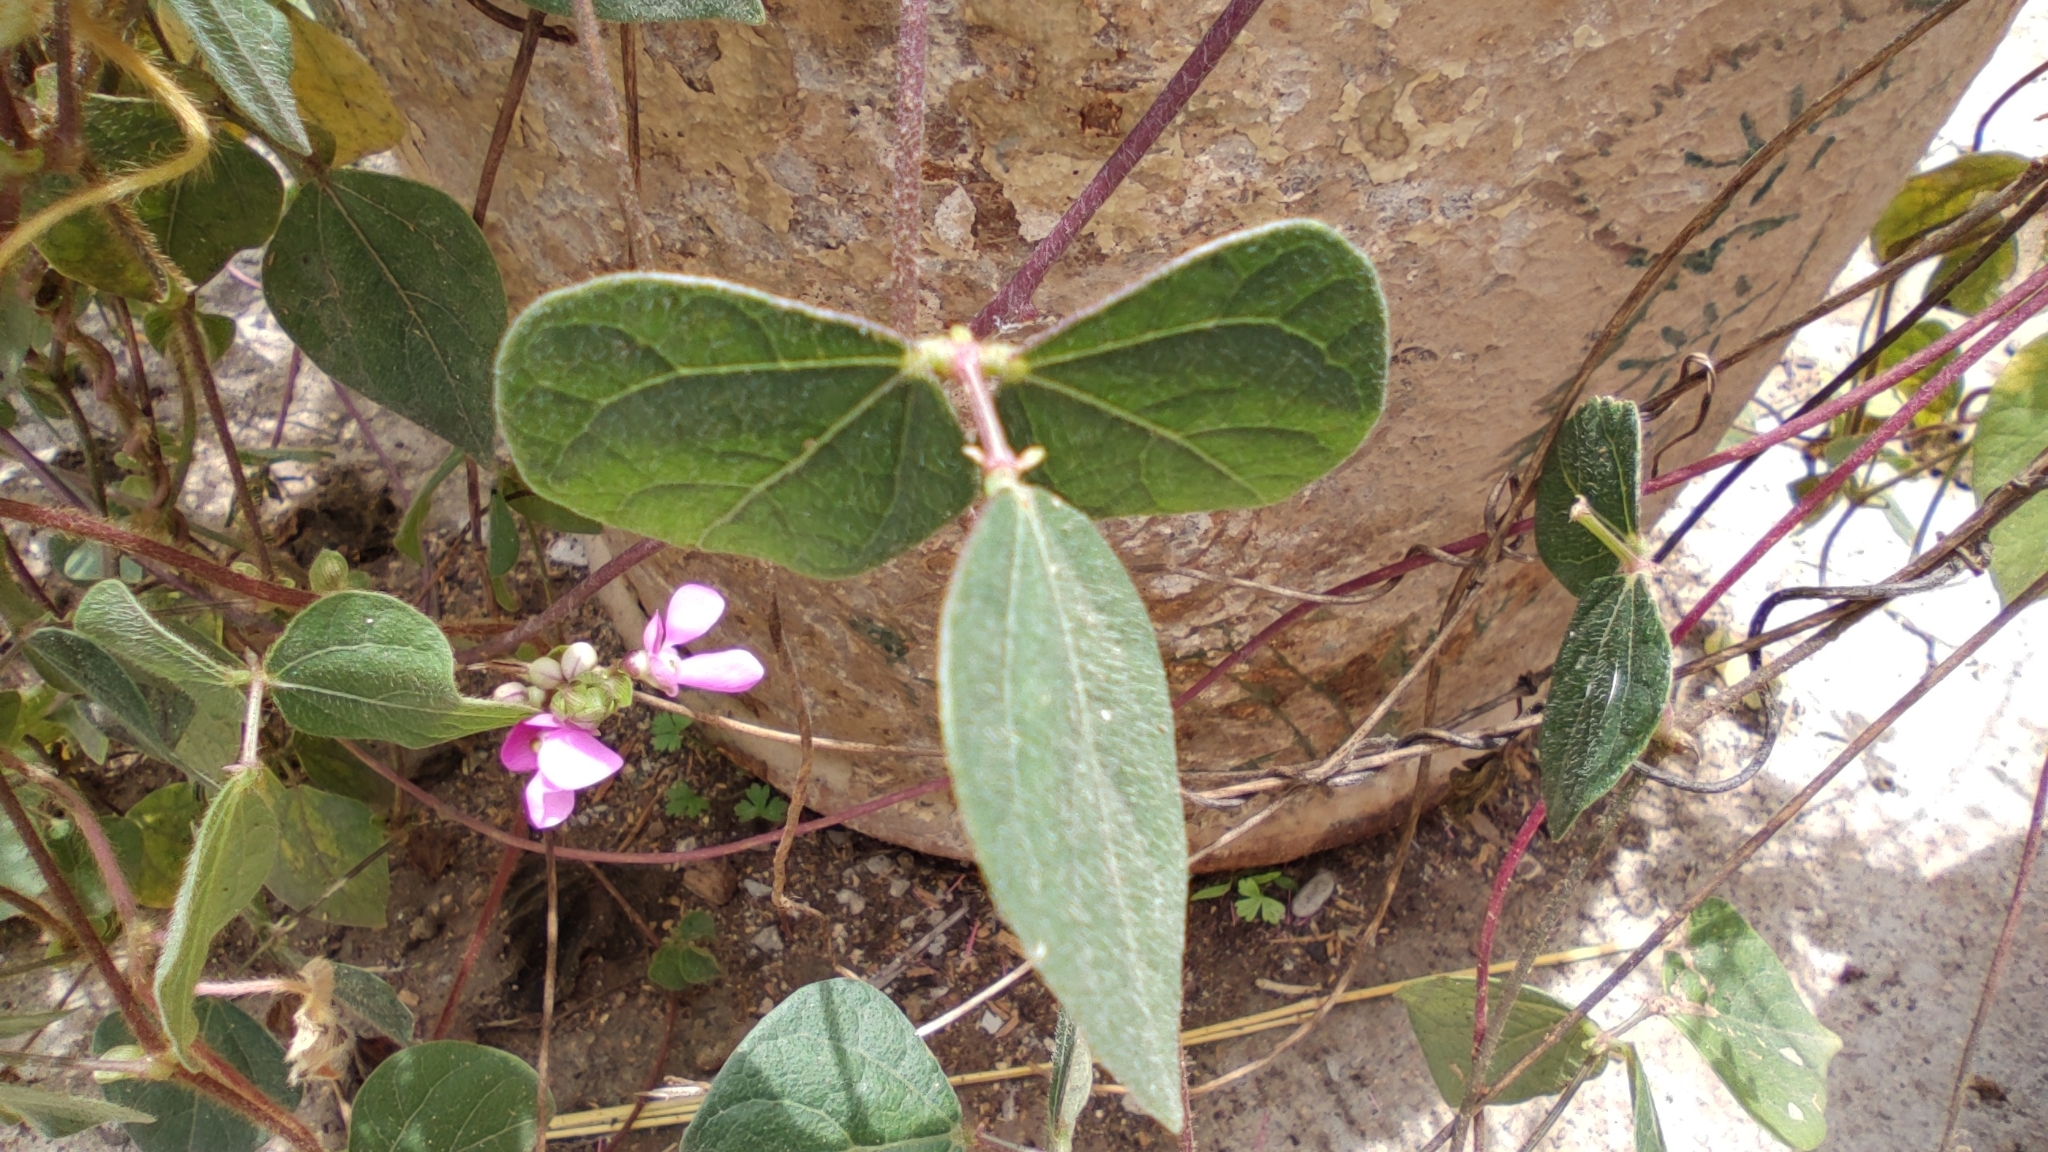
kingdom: Plantae
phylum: Tracheophyta
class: Magnoliopsida
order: Fabales
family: Fabaceae
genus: Phaseolus
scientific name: Phaseolus vulgaris
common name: Bean
